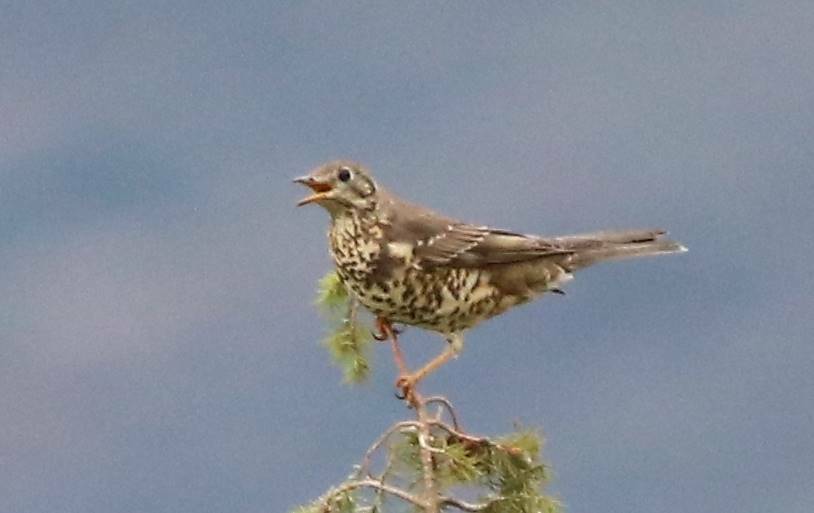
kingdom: Animalia
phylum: Chordata
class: Aves
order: Passeriformes
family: Turdidae
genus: Turdus
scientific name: Turdus viscivorus
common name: Mistle thrush
